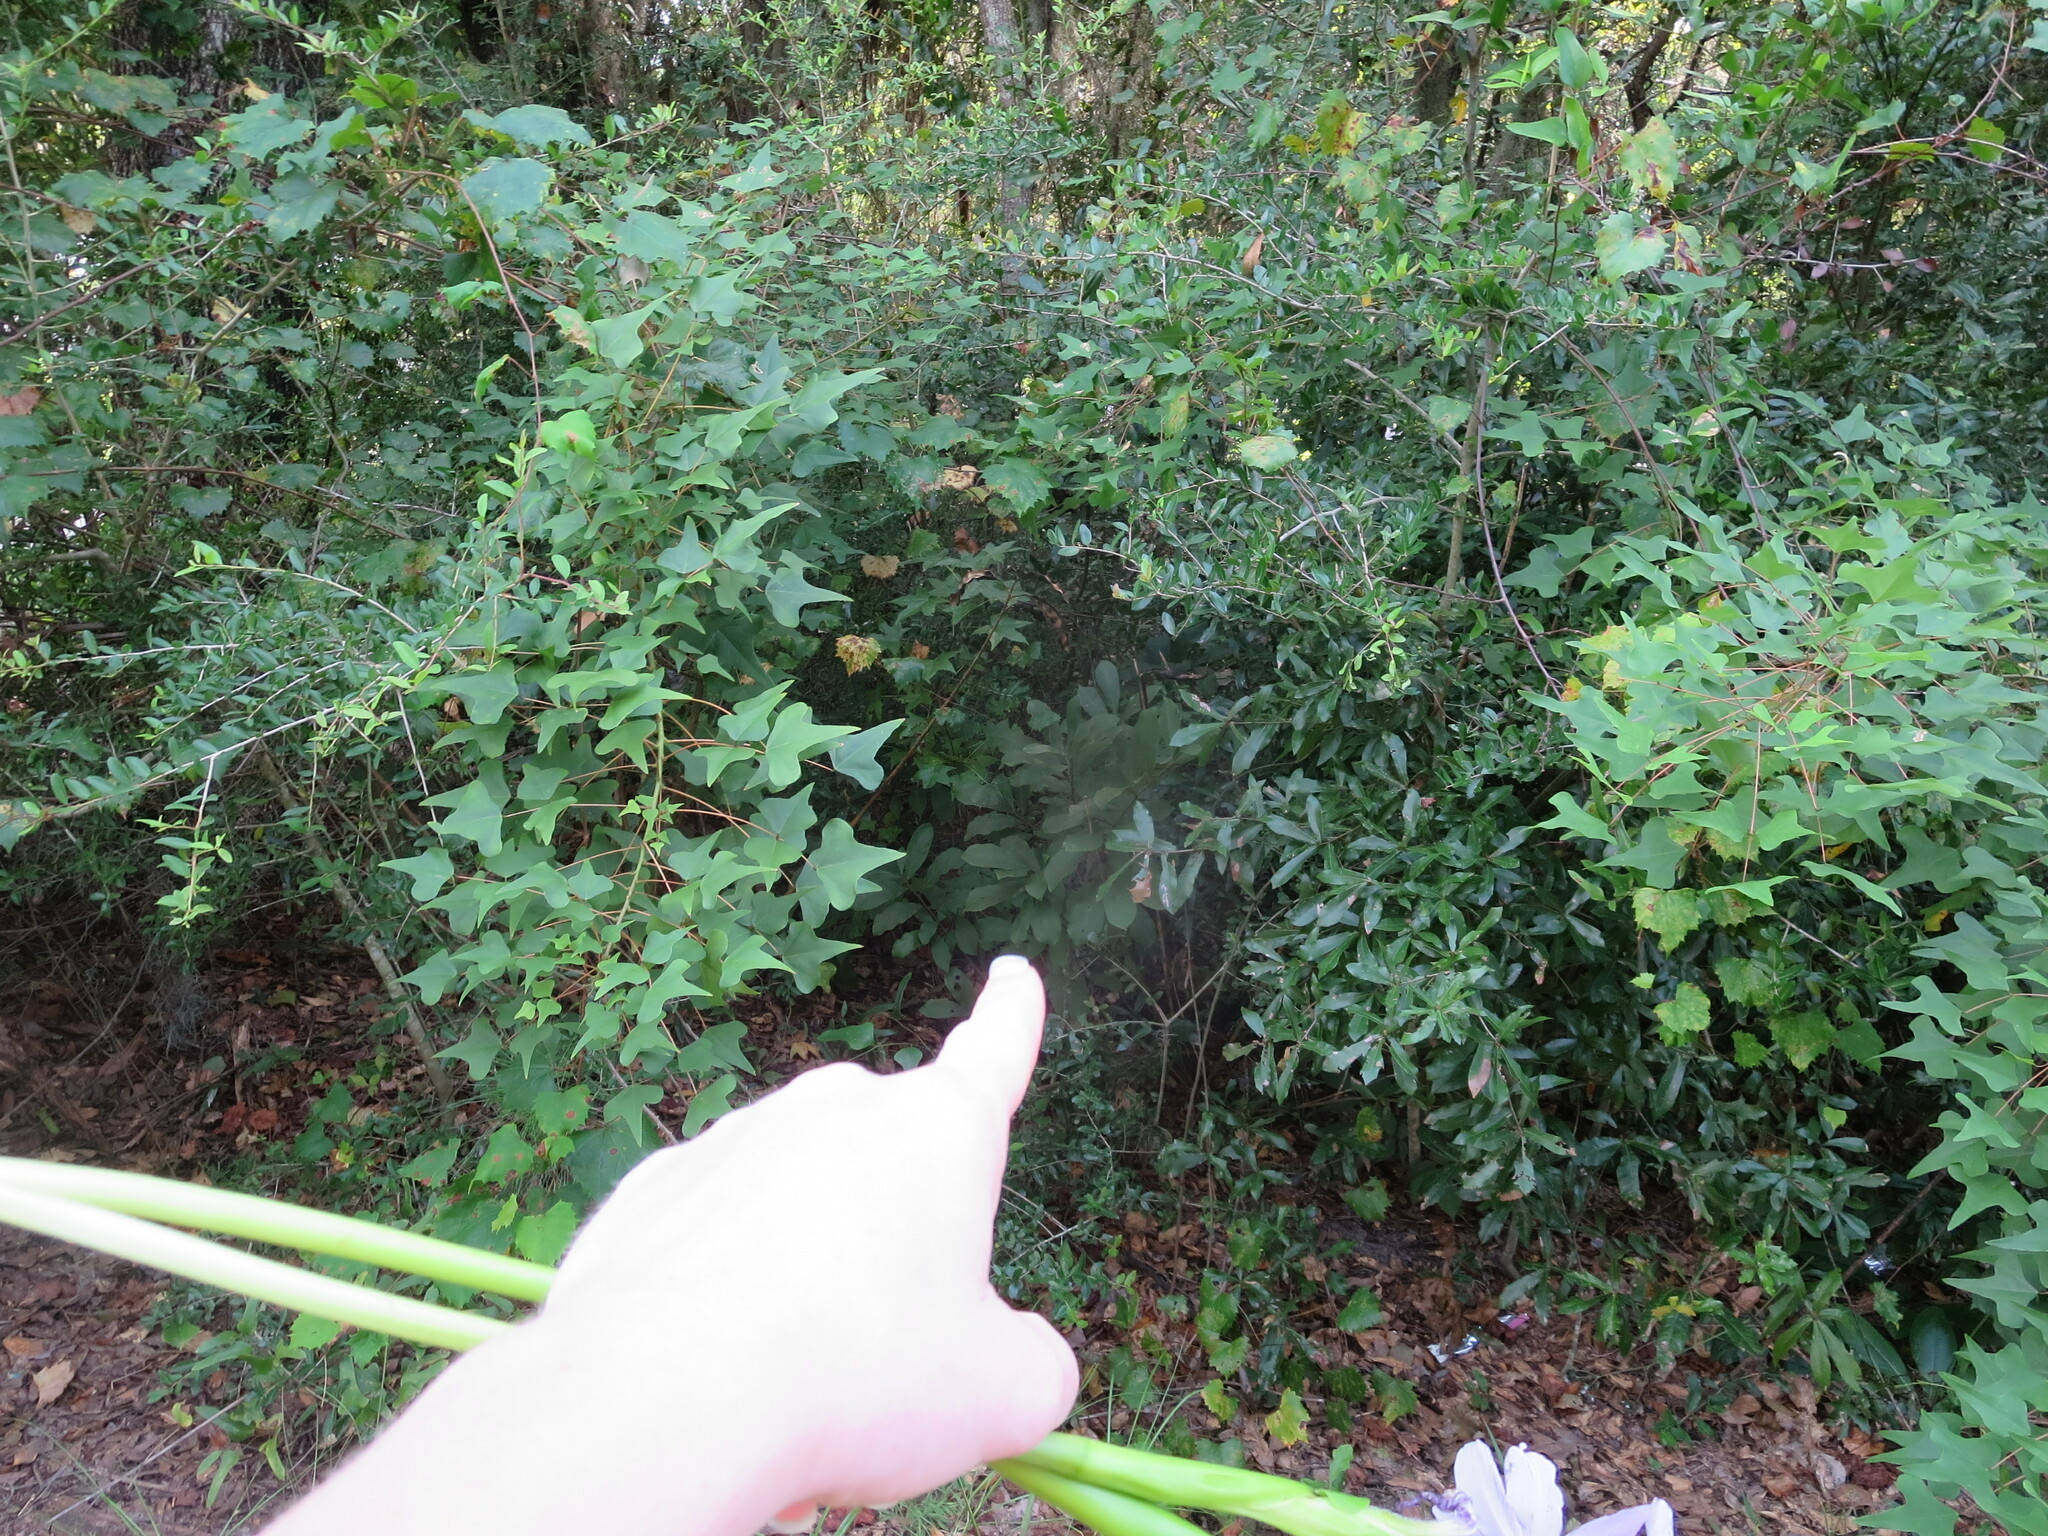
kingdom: Plantae
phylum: Tracheophyta
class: Magnoliopsida
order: Magnoliales
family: Annonaceae
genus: Asimina
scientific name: Asimina parviflora
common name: Dwarf pawpaw
